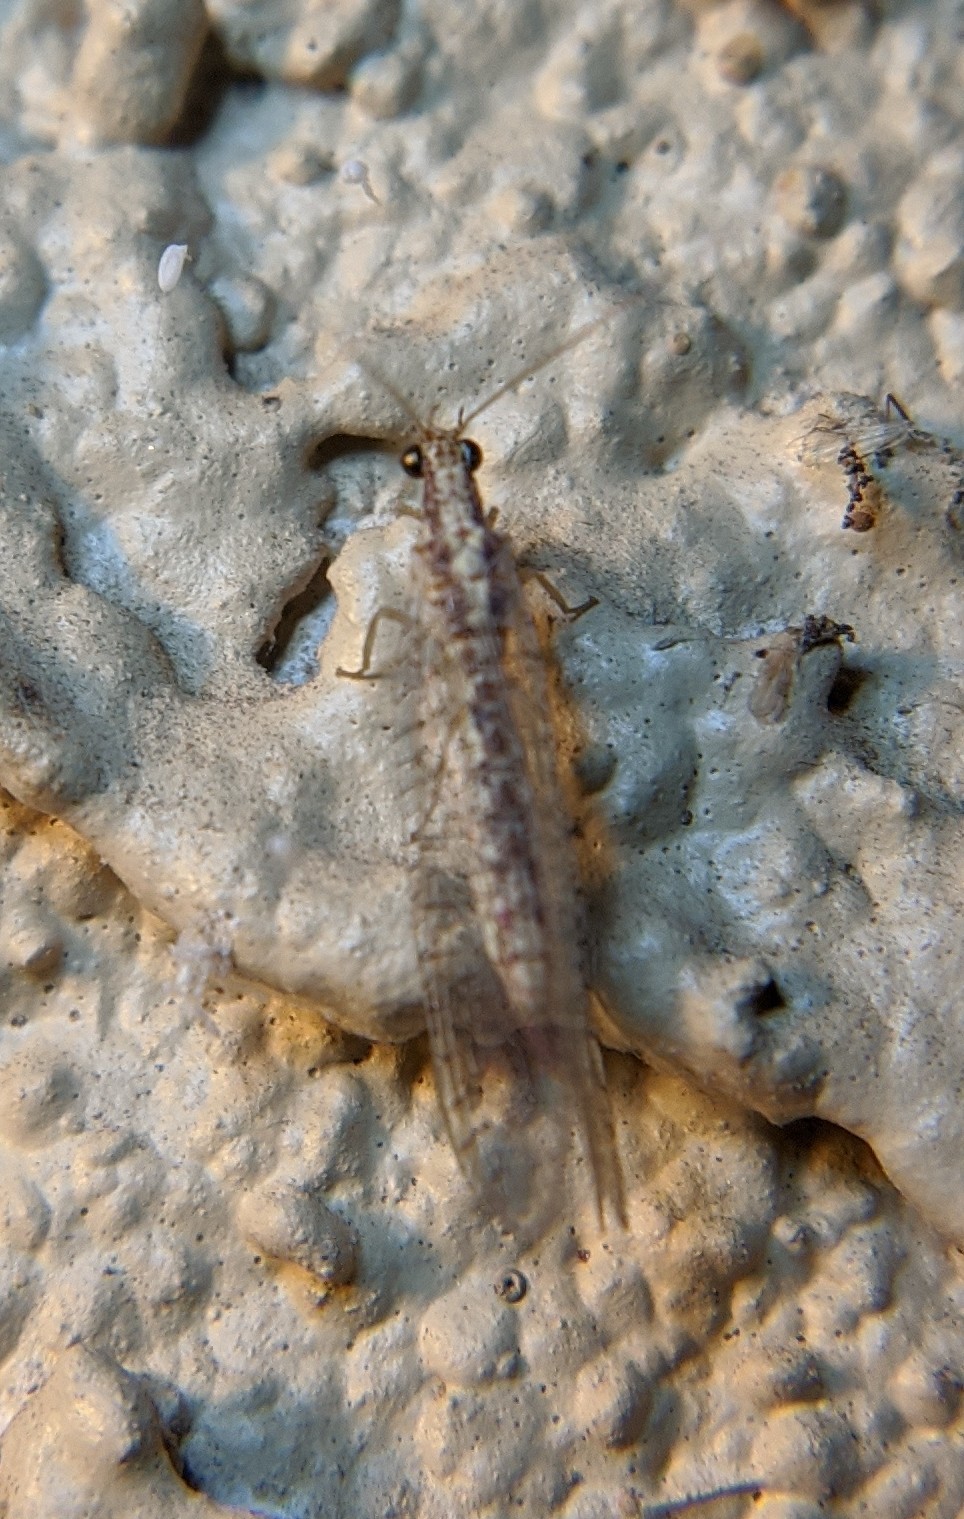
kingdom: Animalia
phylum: Arthropoda
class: Insecta
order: Neuroptera
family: Chrysopidae
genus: Eremochrysa
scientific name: Eremochrysa
